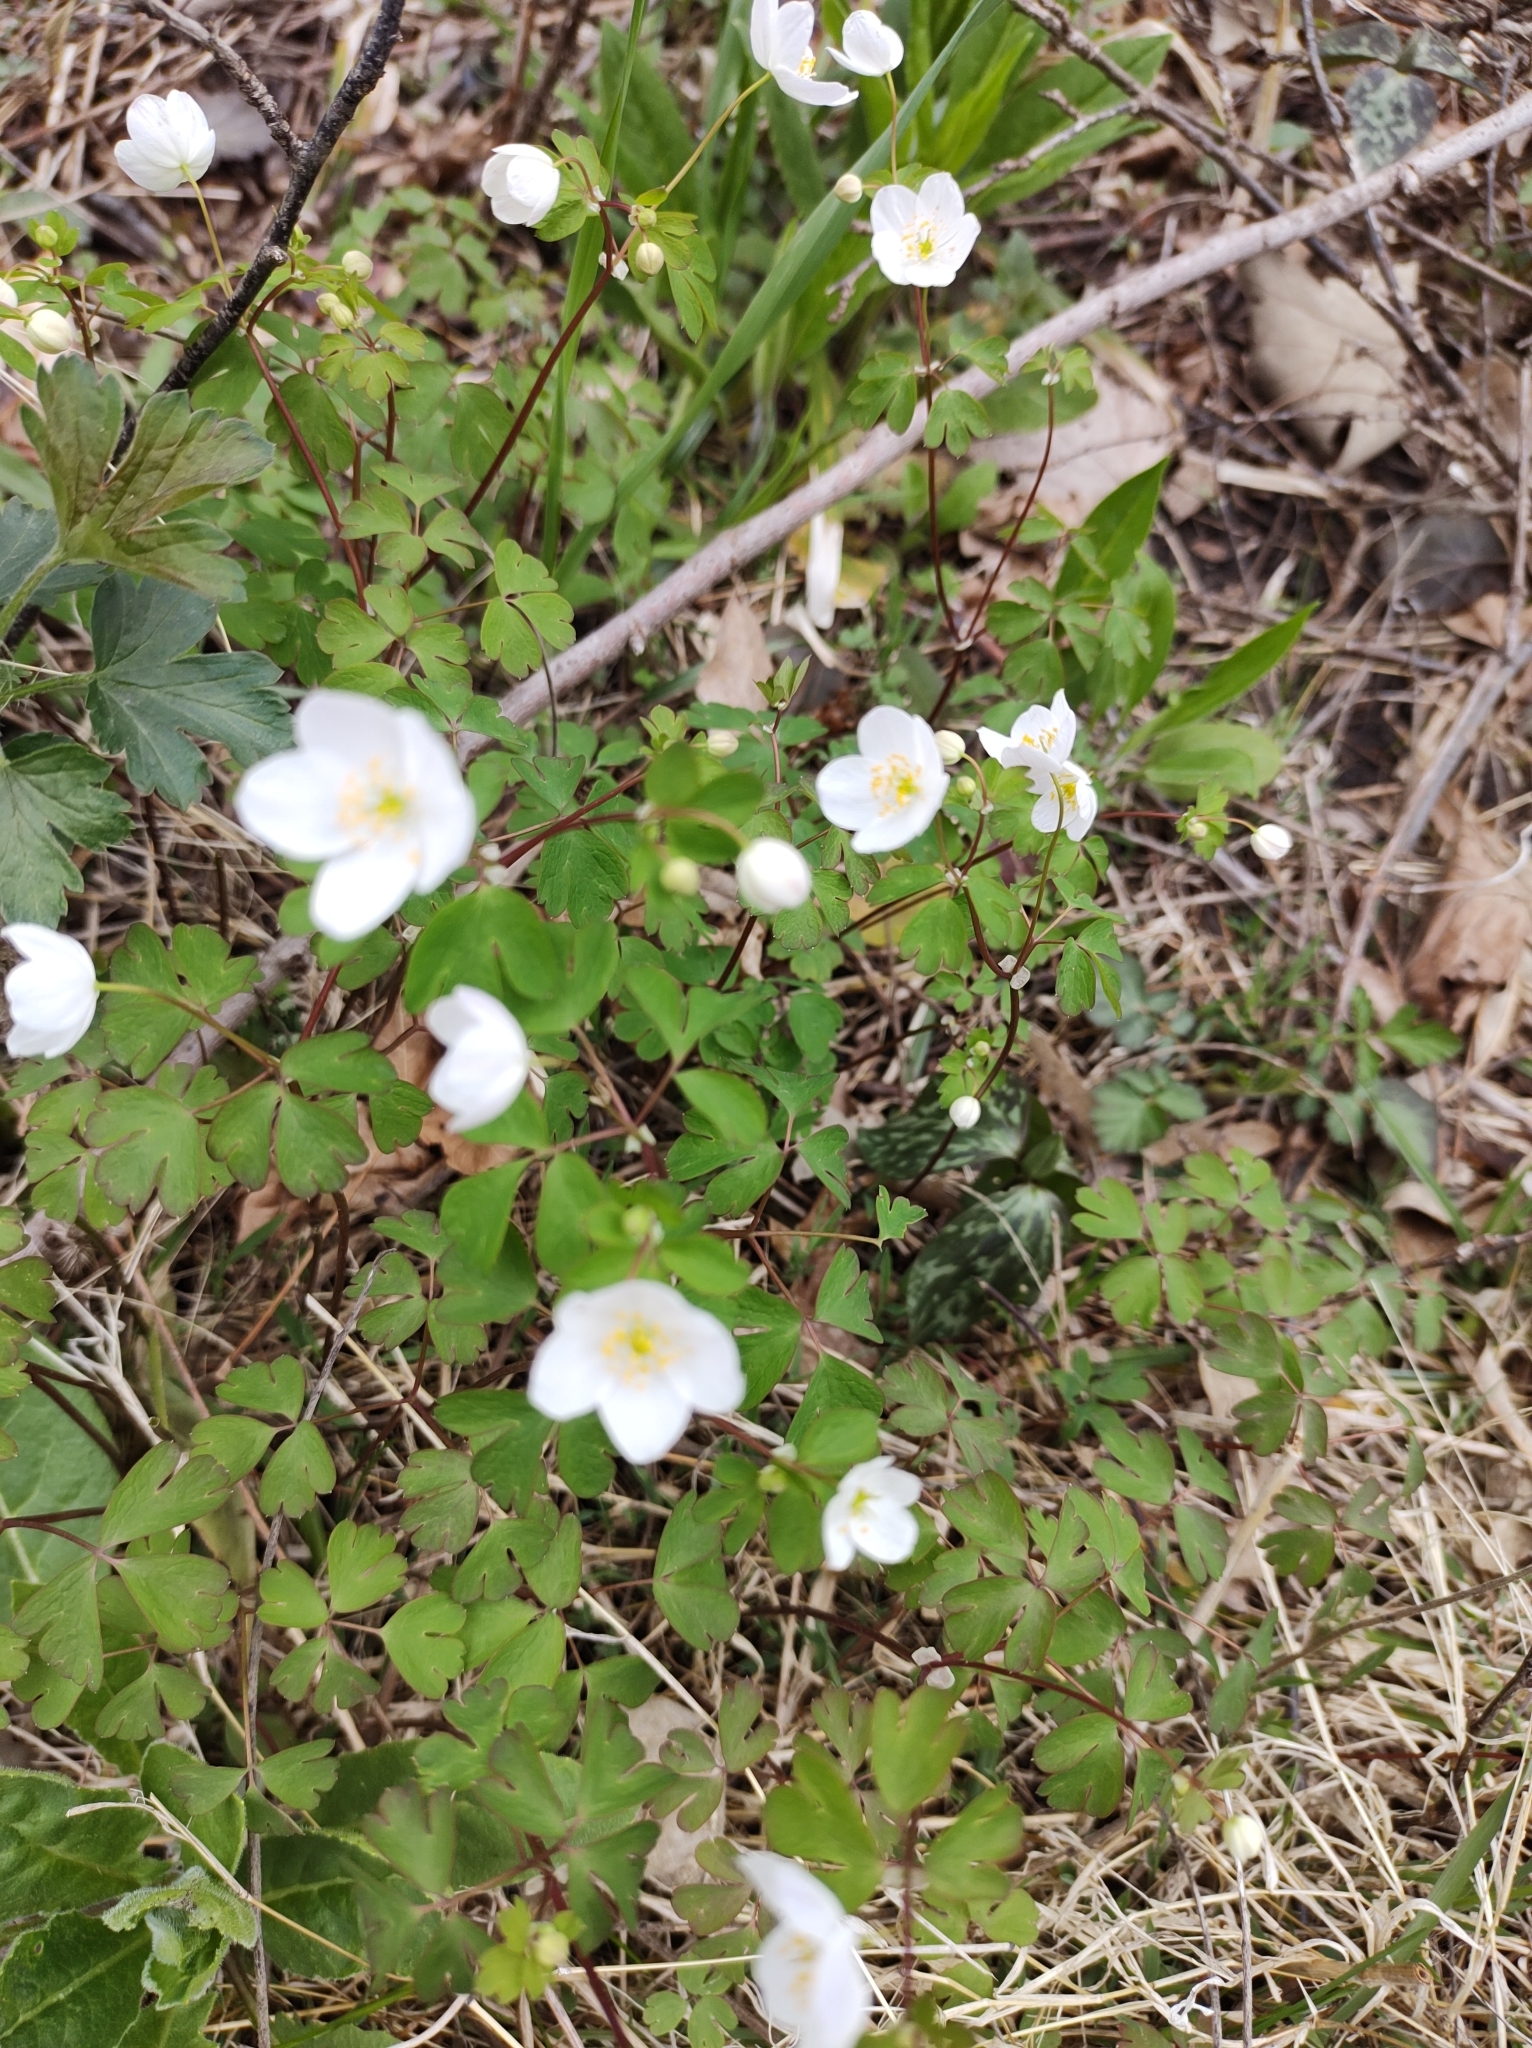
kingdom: Plantae
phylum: Tracheophyta
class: Magnoliopsida
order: Ranunculales
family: Ranunculaceae
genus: Enemion
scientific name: Enemion biternatum
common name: Eastern false rue-anemone
